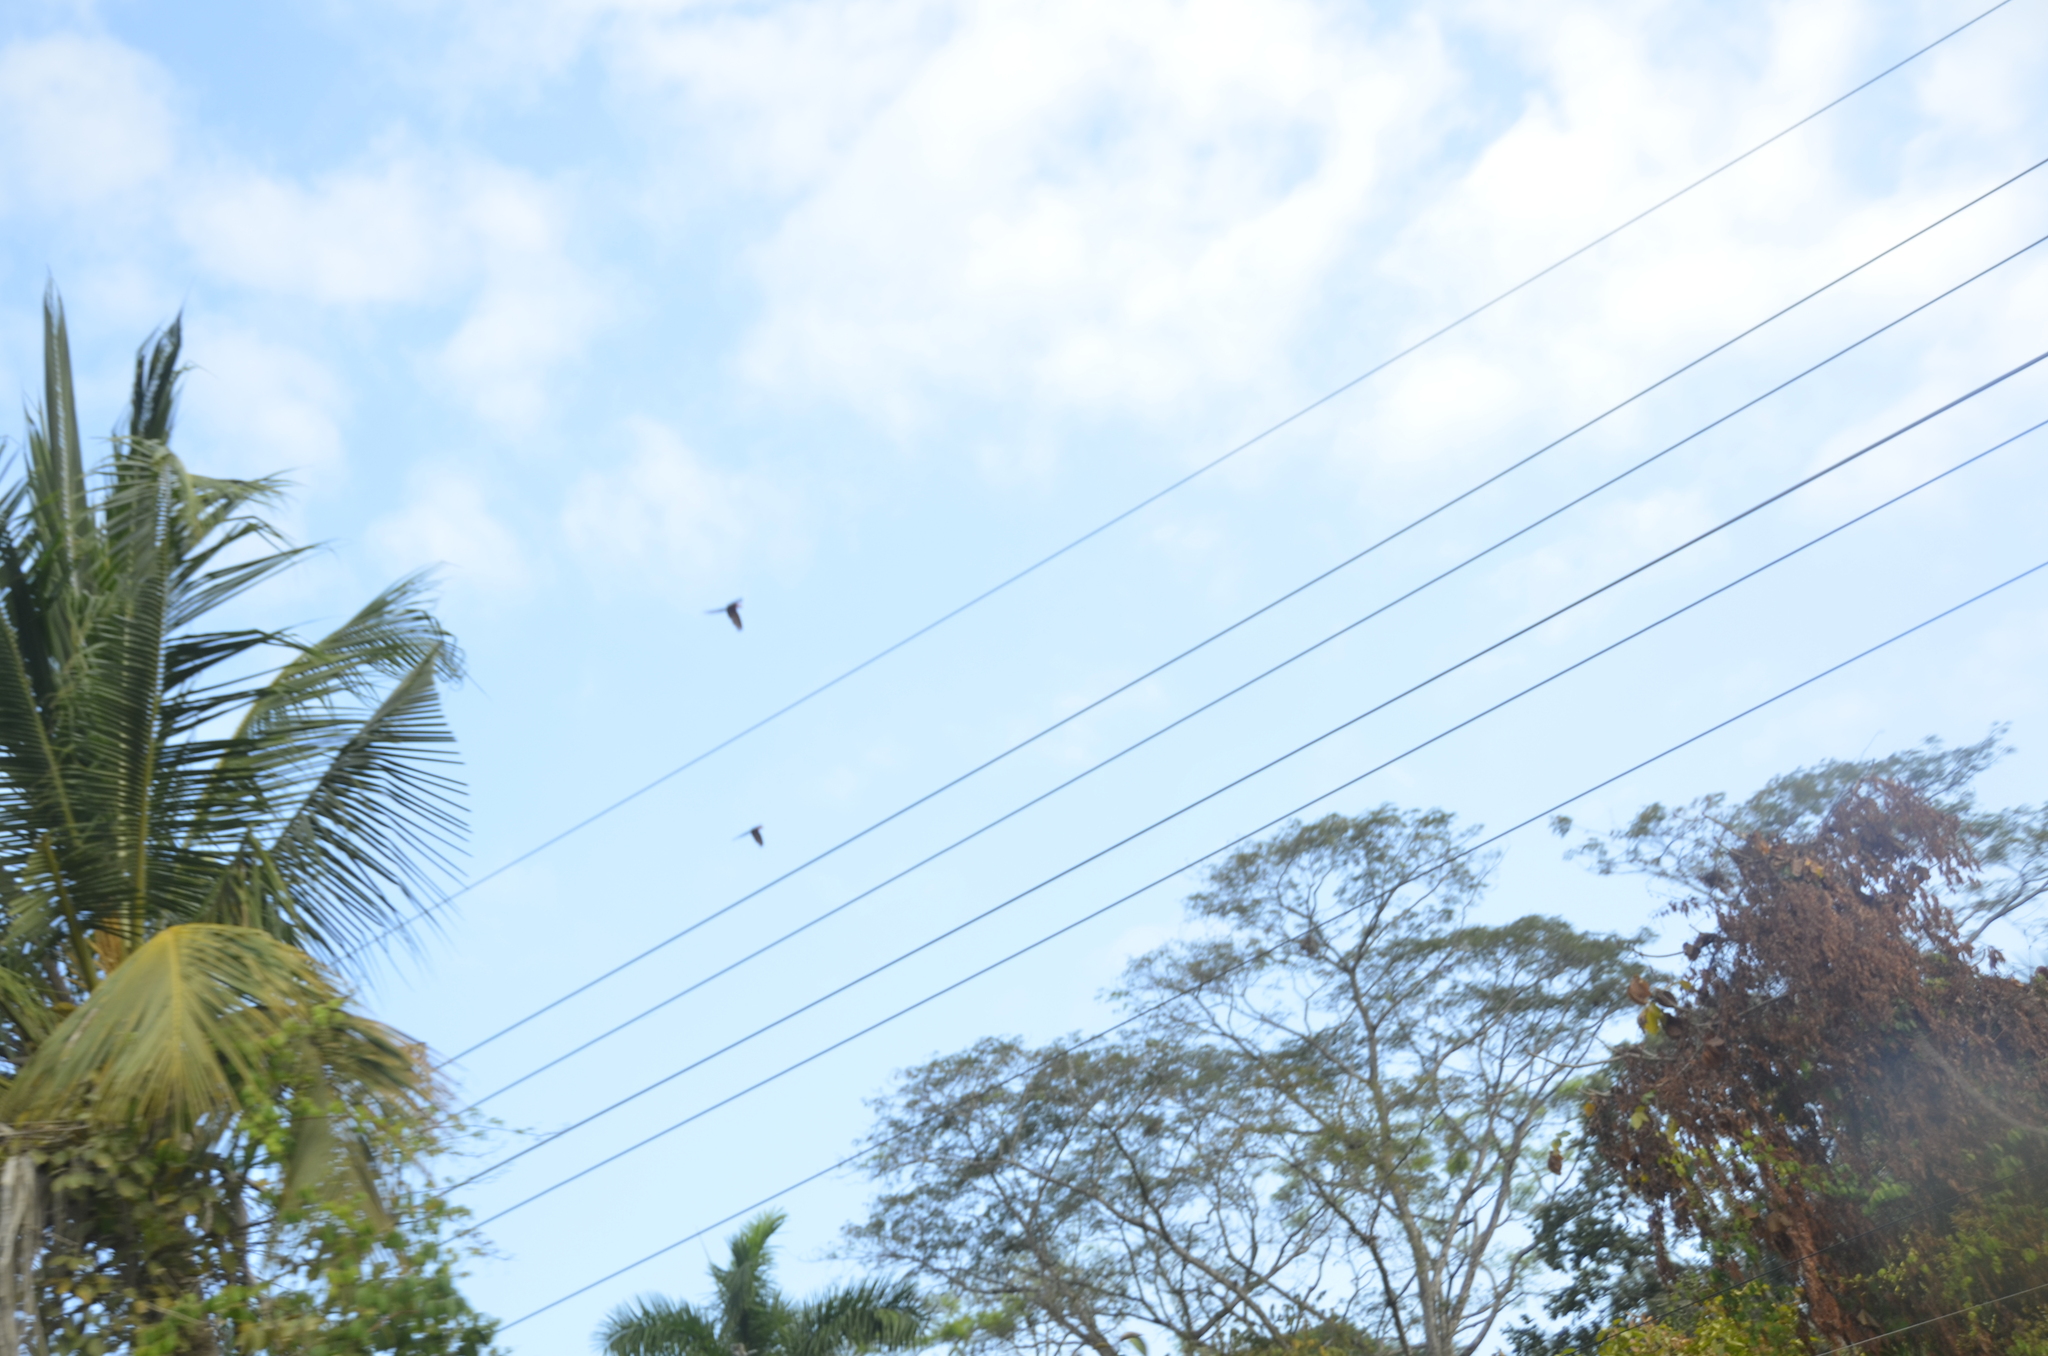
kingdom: Animalia
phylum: Chordata
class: Aves
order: Psittaciformes
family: Psittacidae
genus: Ara
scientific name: Ara macao
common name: Scarlet macaw
